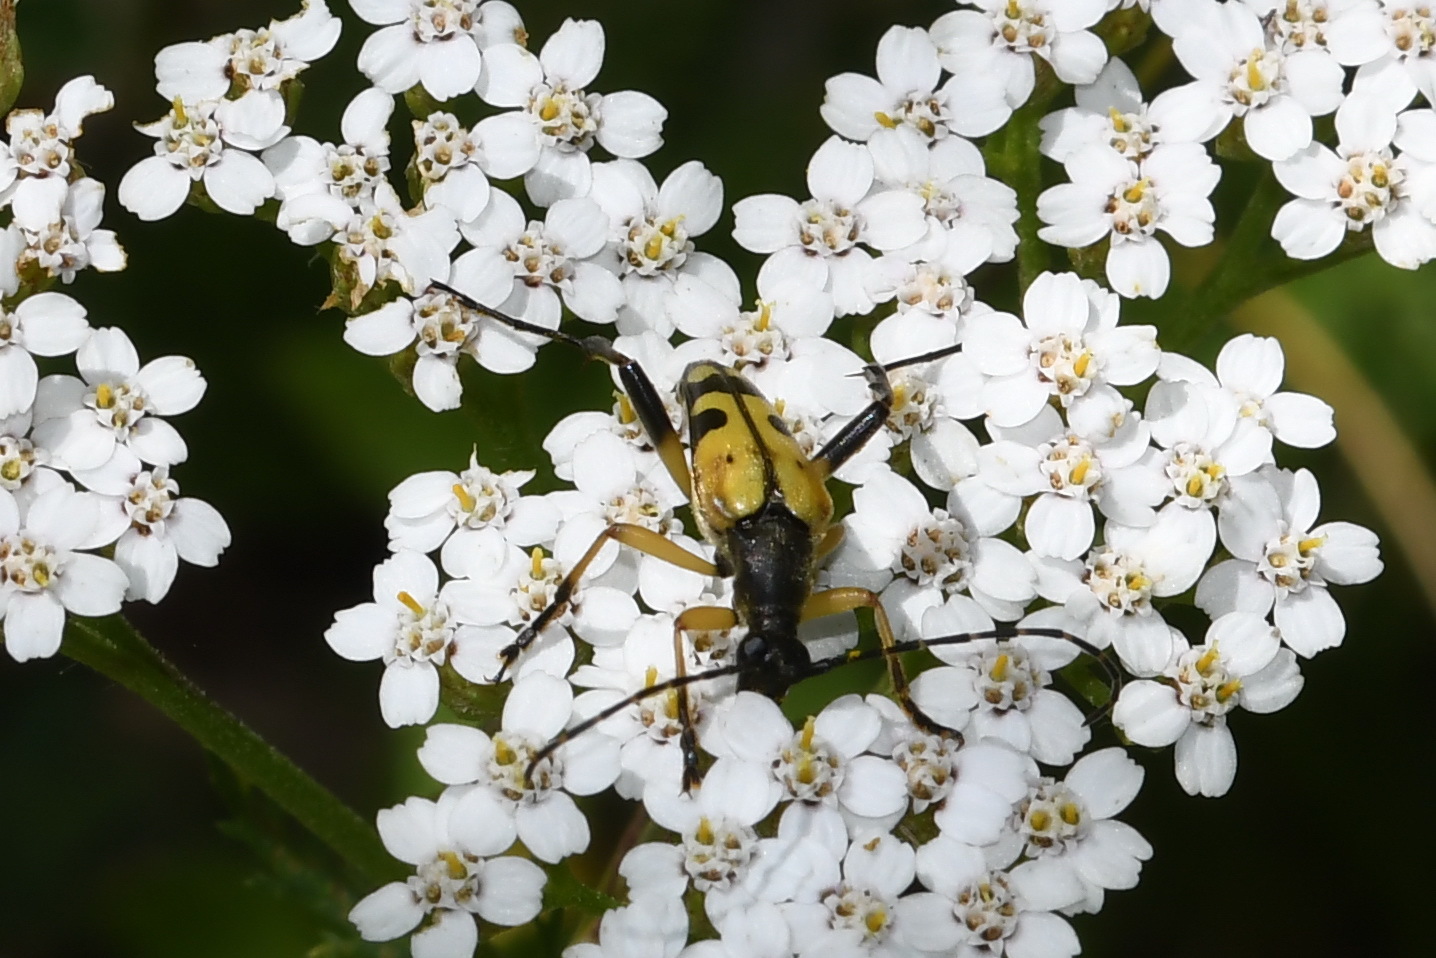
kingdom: Animalia
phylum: Arthropoda
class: Insecta
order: Coleoptera
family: Cerambycidae
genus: Rutpela
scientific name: Rutpela maculata
